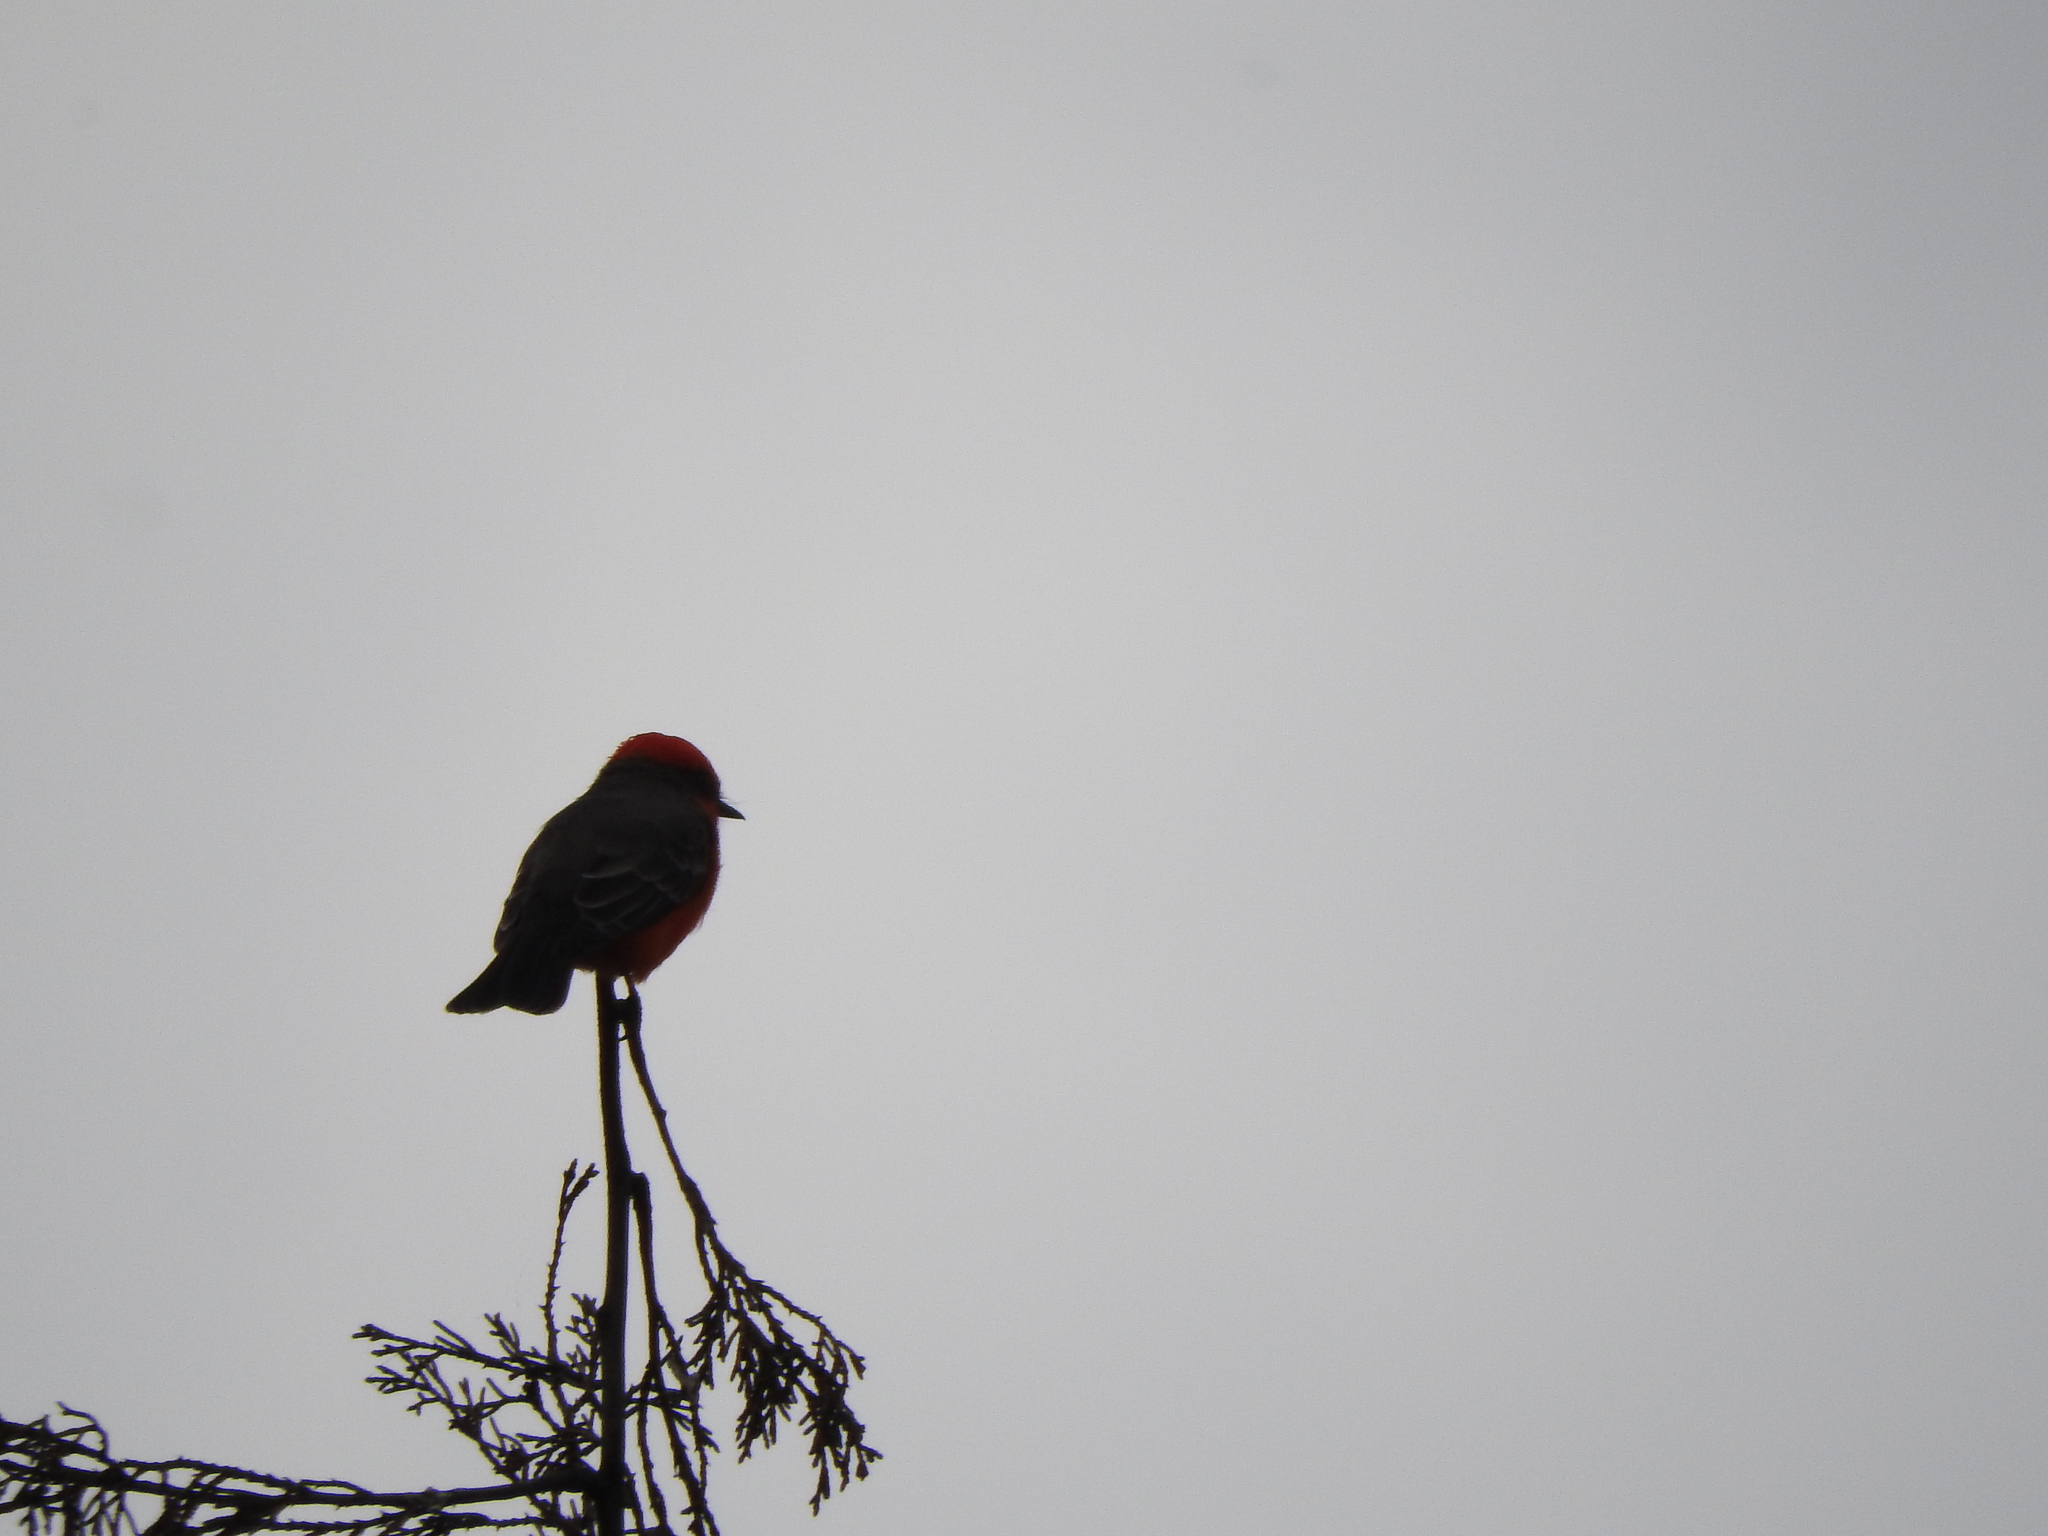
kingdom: Animalia
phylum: Chordata
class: Aves
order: Passeriformes
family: Tyrannidae
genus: Pyrocephalus
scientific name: Pyrocephalus rubinus
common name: Vermilion flycatcher
